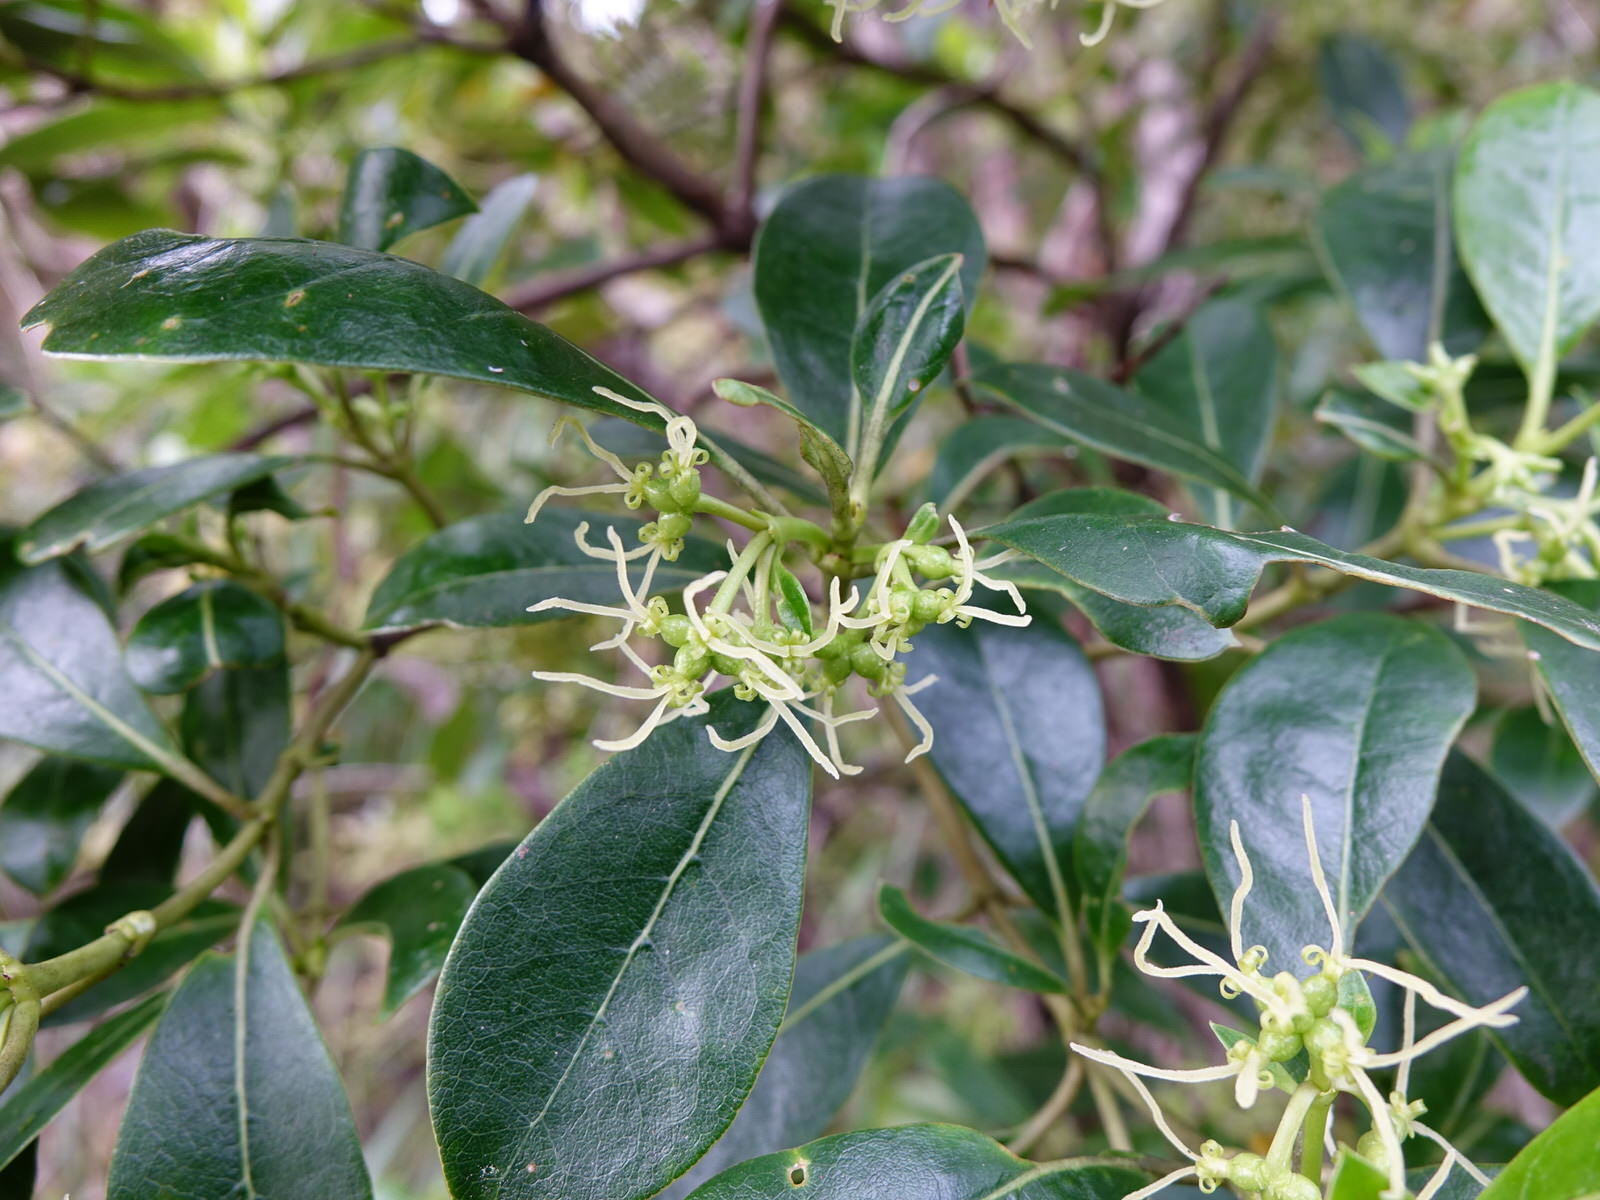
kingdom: Plantae
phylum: Tracheophyta
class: Magnoliopsida
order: Gentianales
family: Rubiaceae
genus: Coprosma
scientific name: Coprosma lucida
